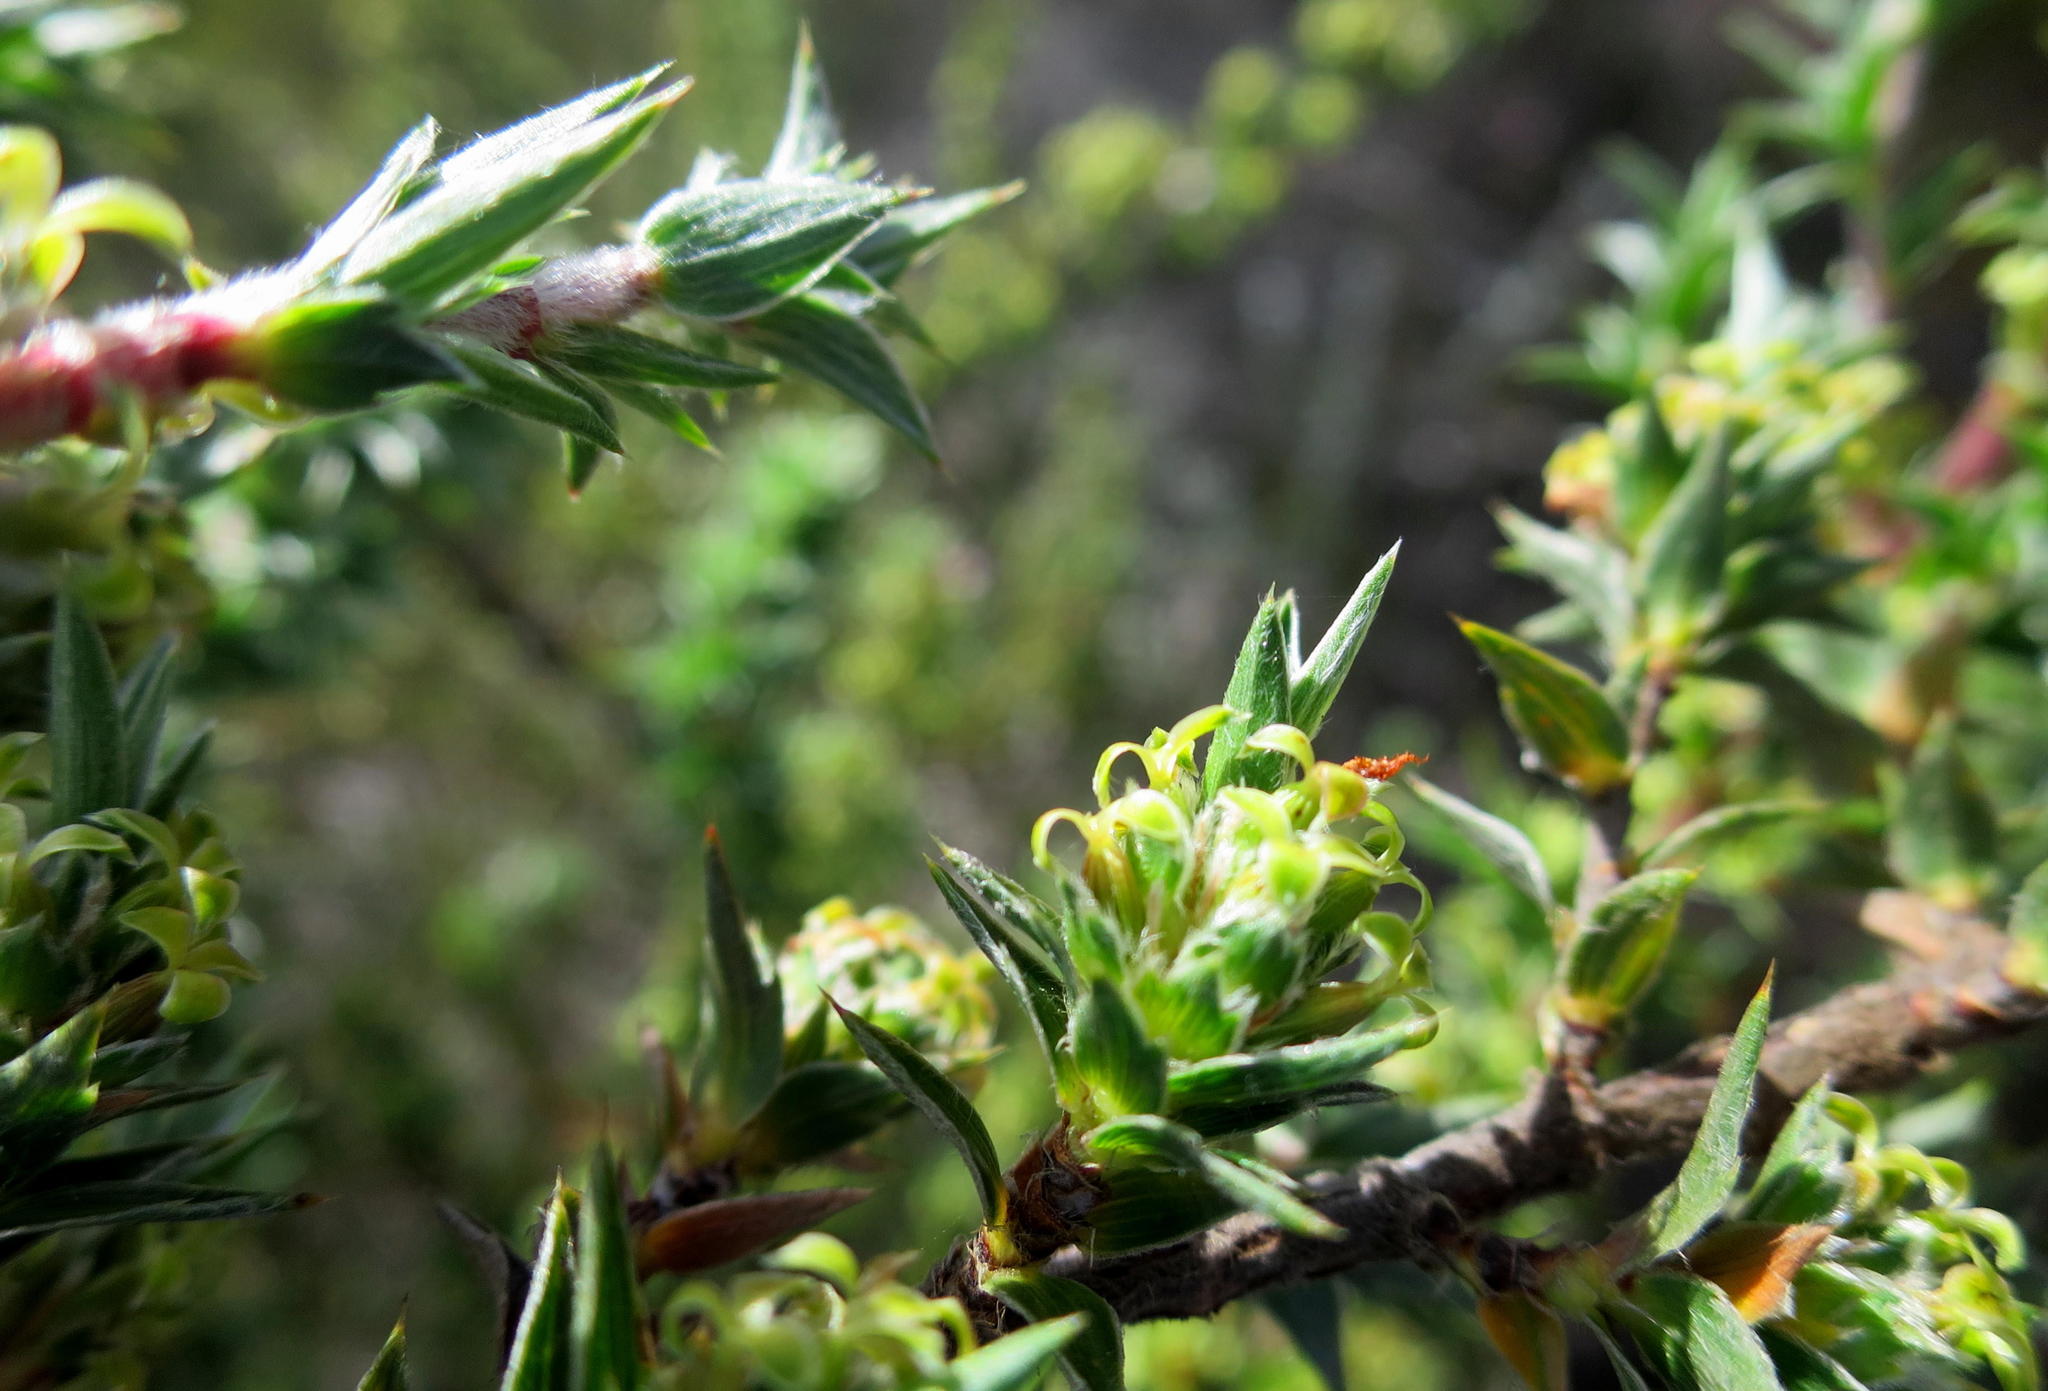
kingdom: Plantae
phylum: Tracheophyta
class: Magnoliopsida
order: Rosales
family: Rosaceae
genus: Cliffortia
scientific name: Cliffortia ruscifolia
